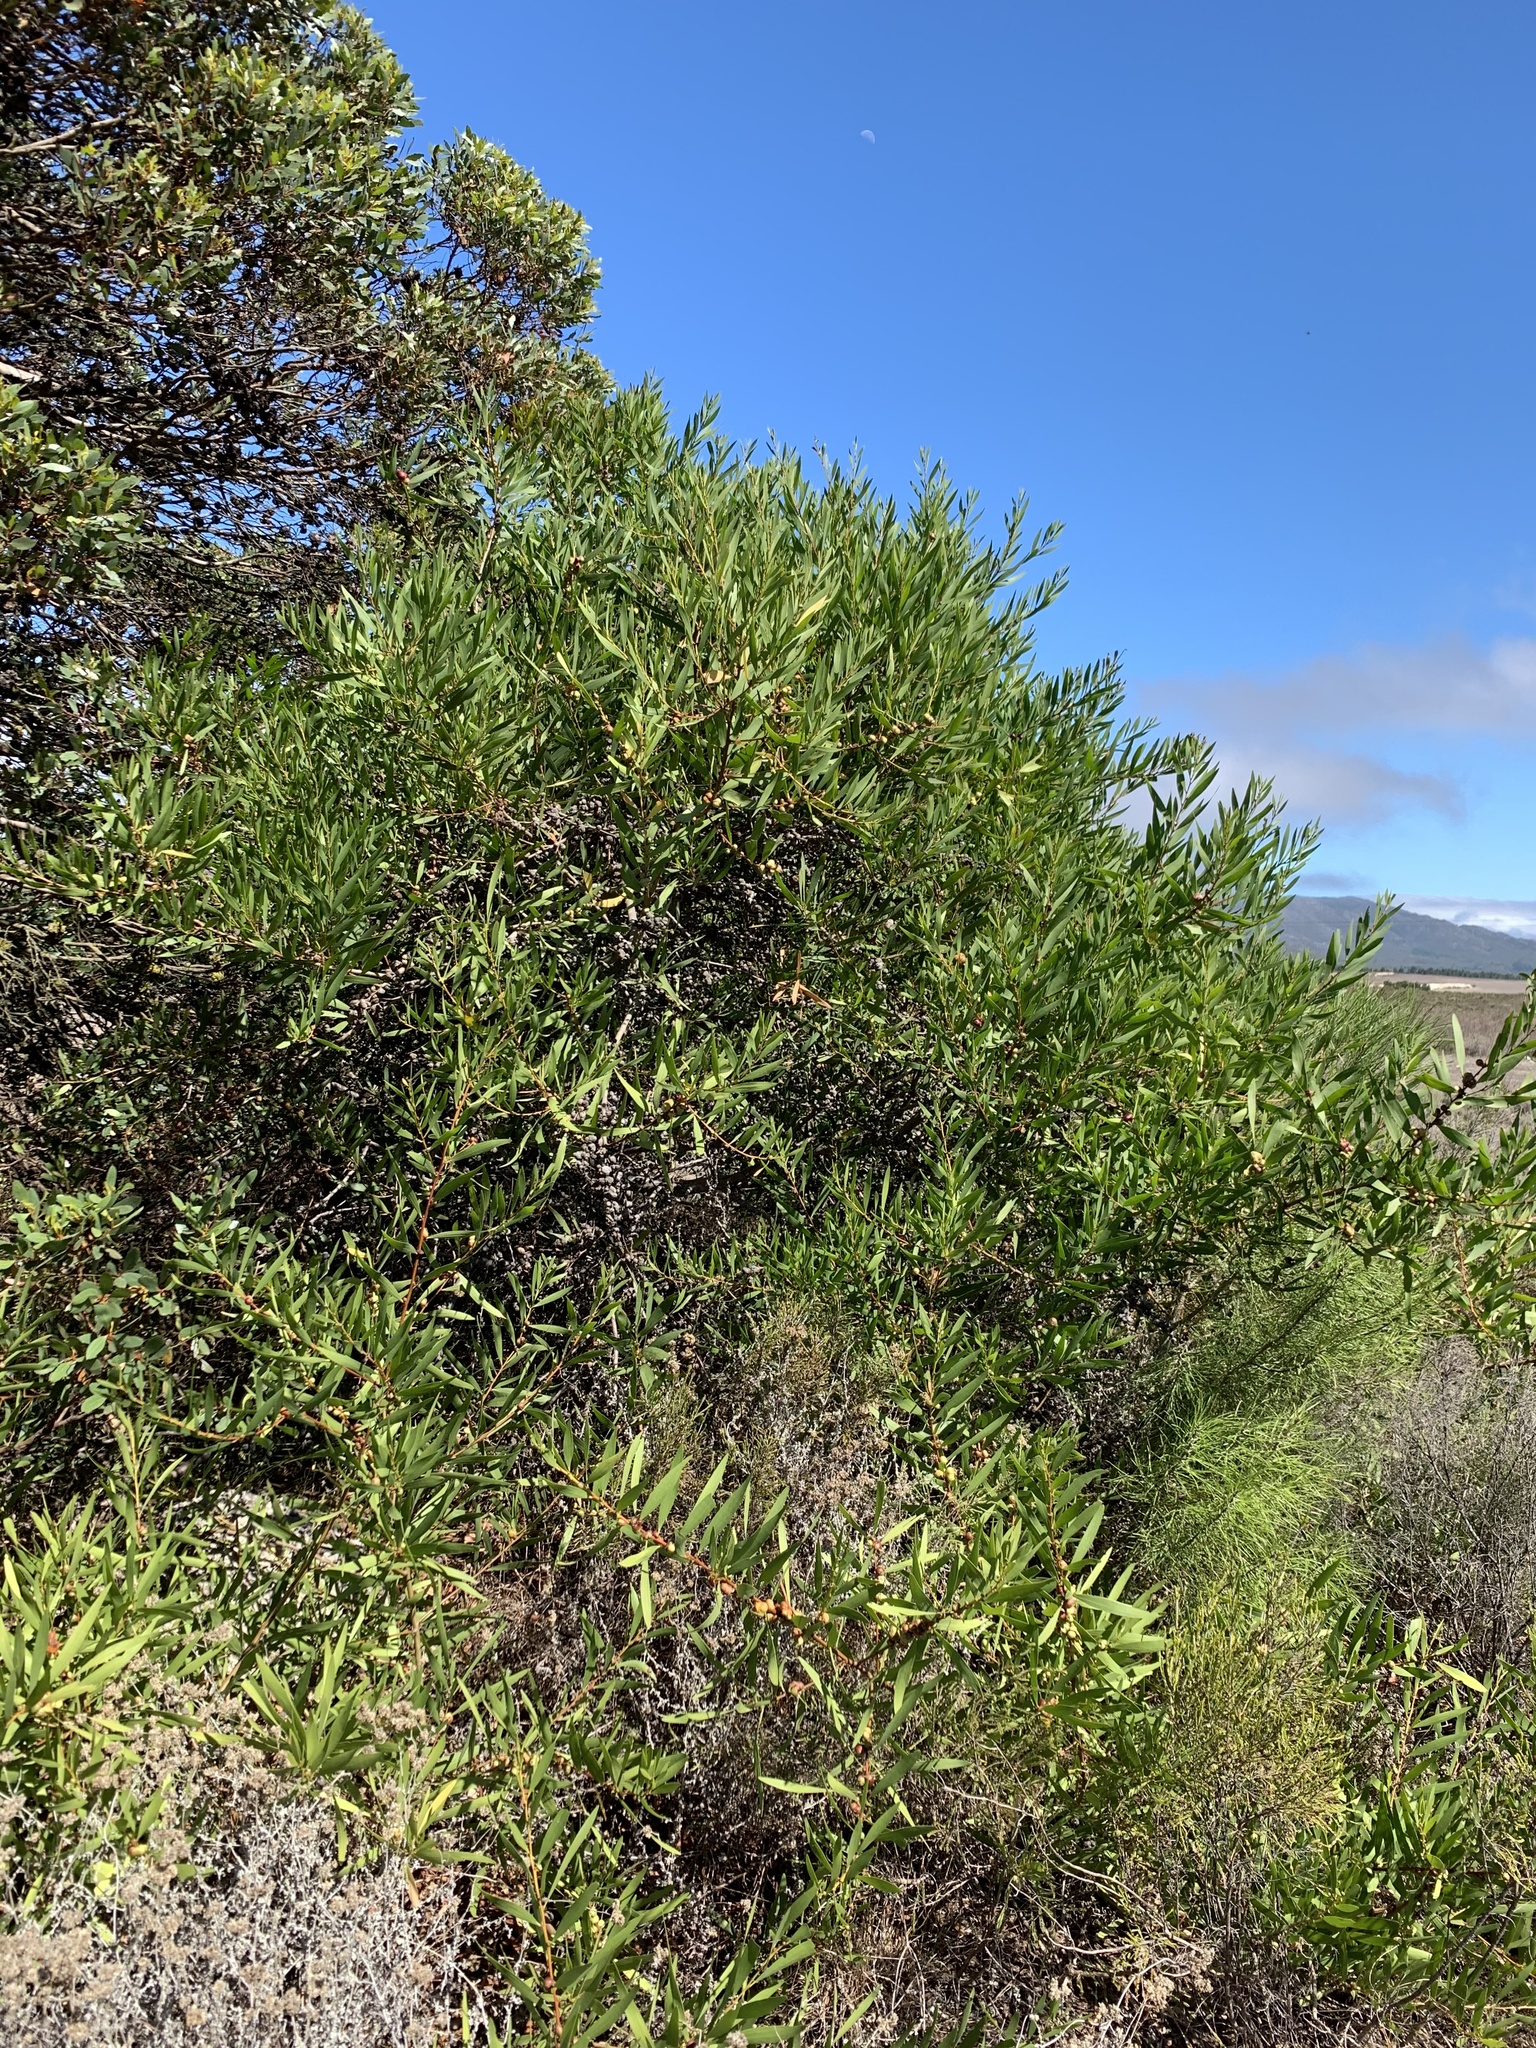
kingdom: Plantae
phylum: Tracheophyta
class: Magnoliopsida
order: Fabales
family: Fabaceae
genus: Acacia
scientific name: Acacia longifolia
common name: Sydney golden wattle
